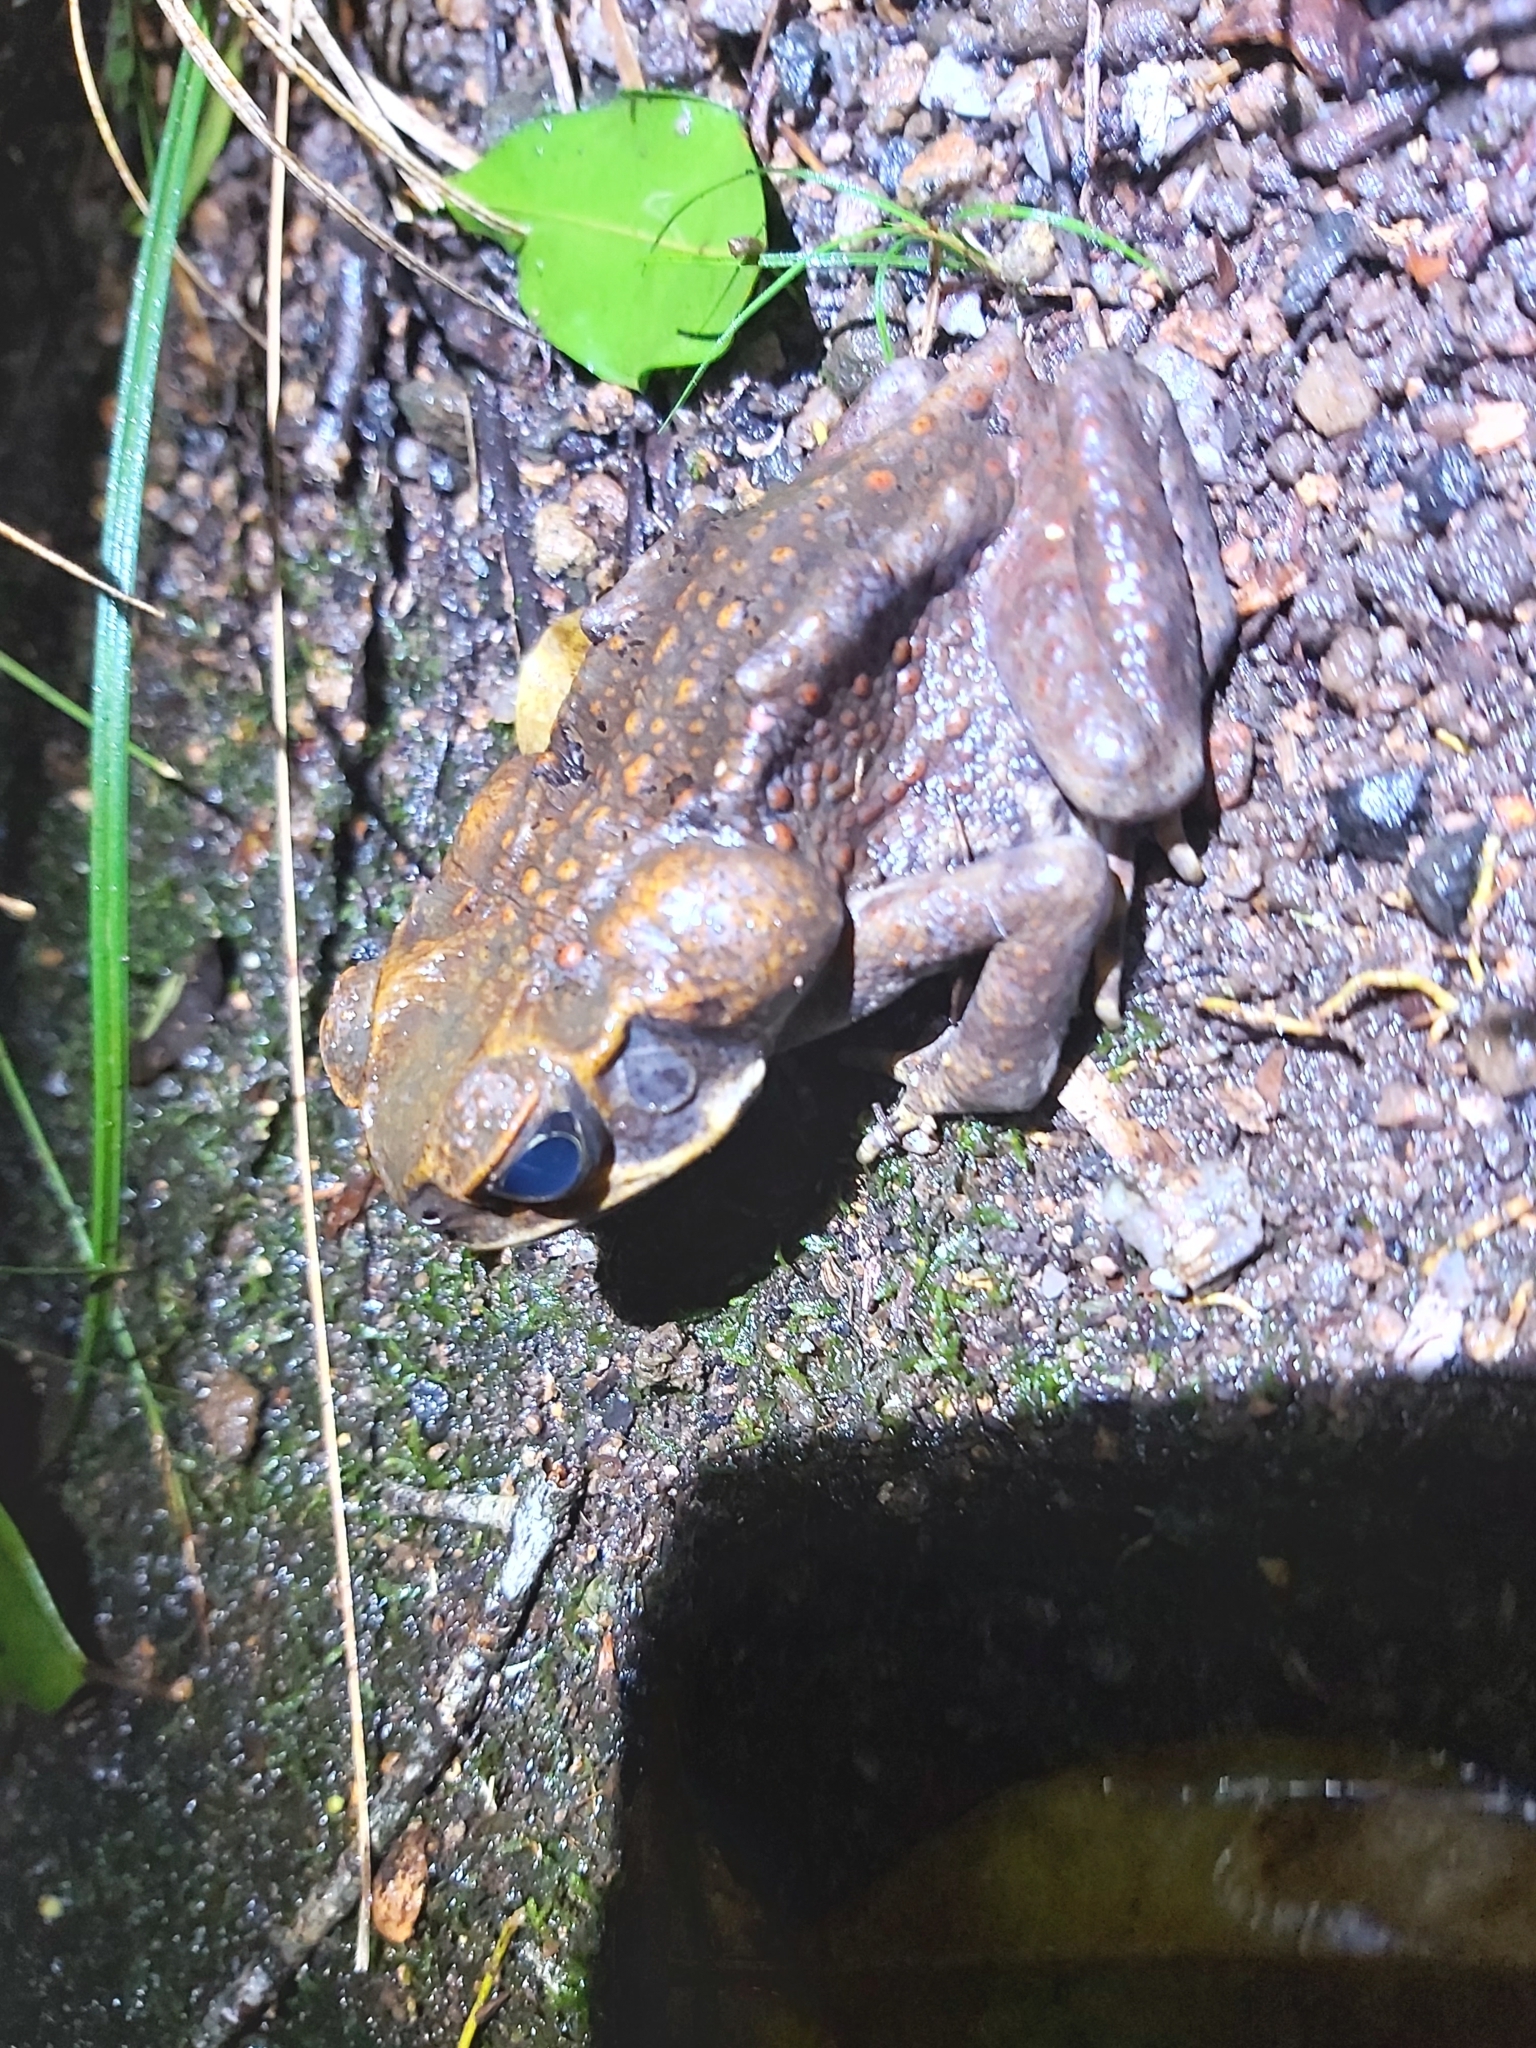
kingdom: Animalia
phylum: Chordata
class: Amphibia
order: Anura
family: Bufonidae
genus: Rhinella
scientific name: Rhinella marina
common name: Cane toad
